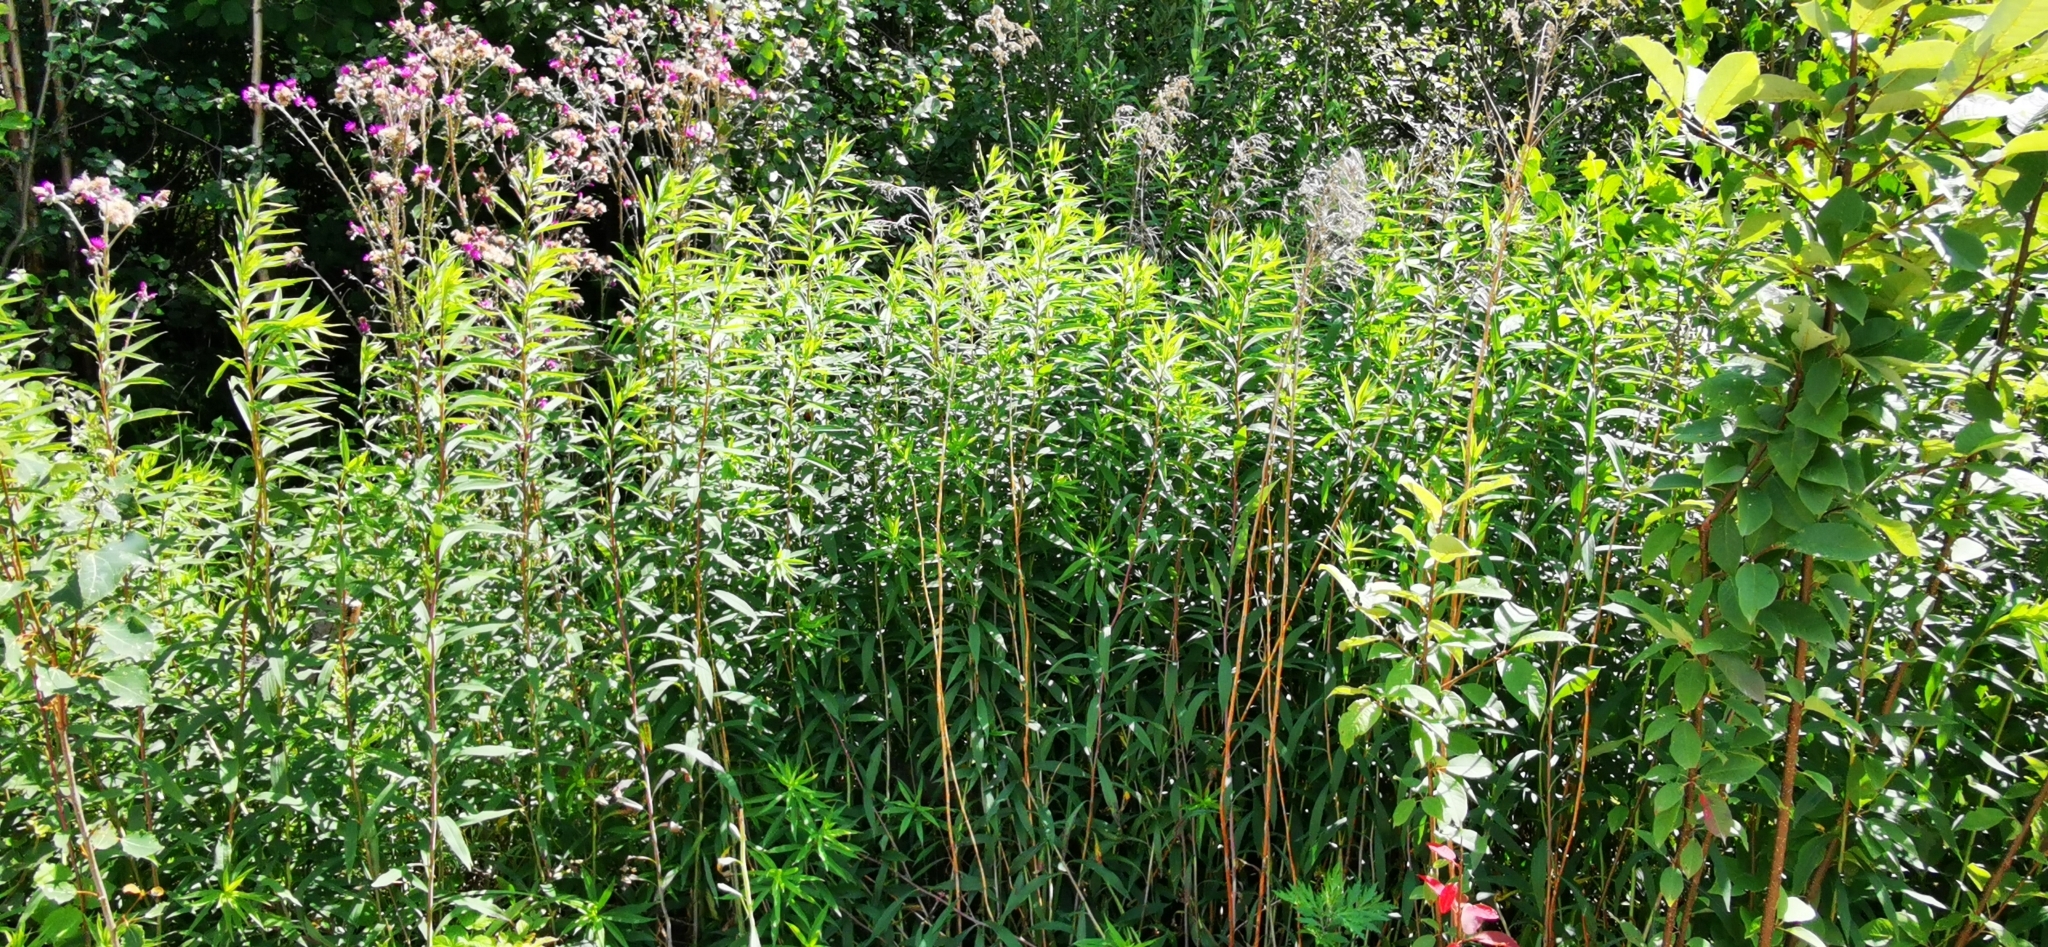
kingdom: Plantae
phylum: Tracheophyta
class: Magnoliopsida
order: Asterales
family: Asteraceae
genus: Solidago
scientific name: Solidago gigantea
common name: Giant goldenrod
